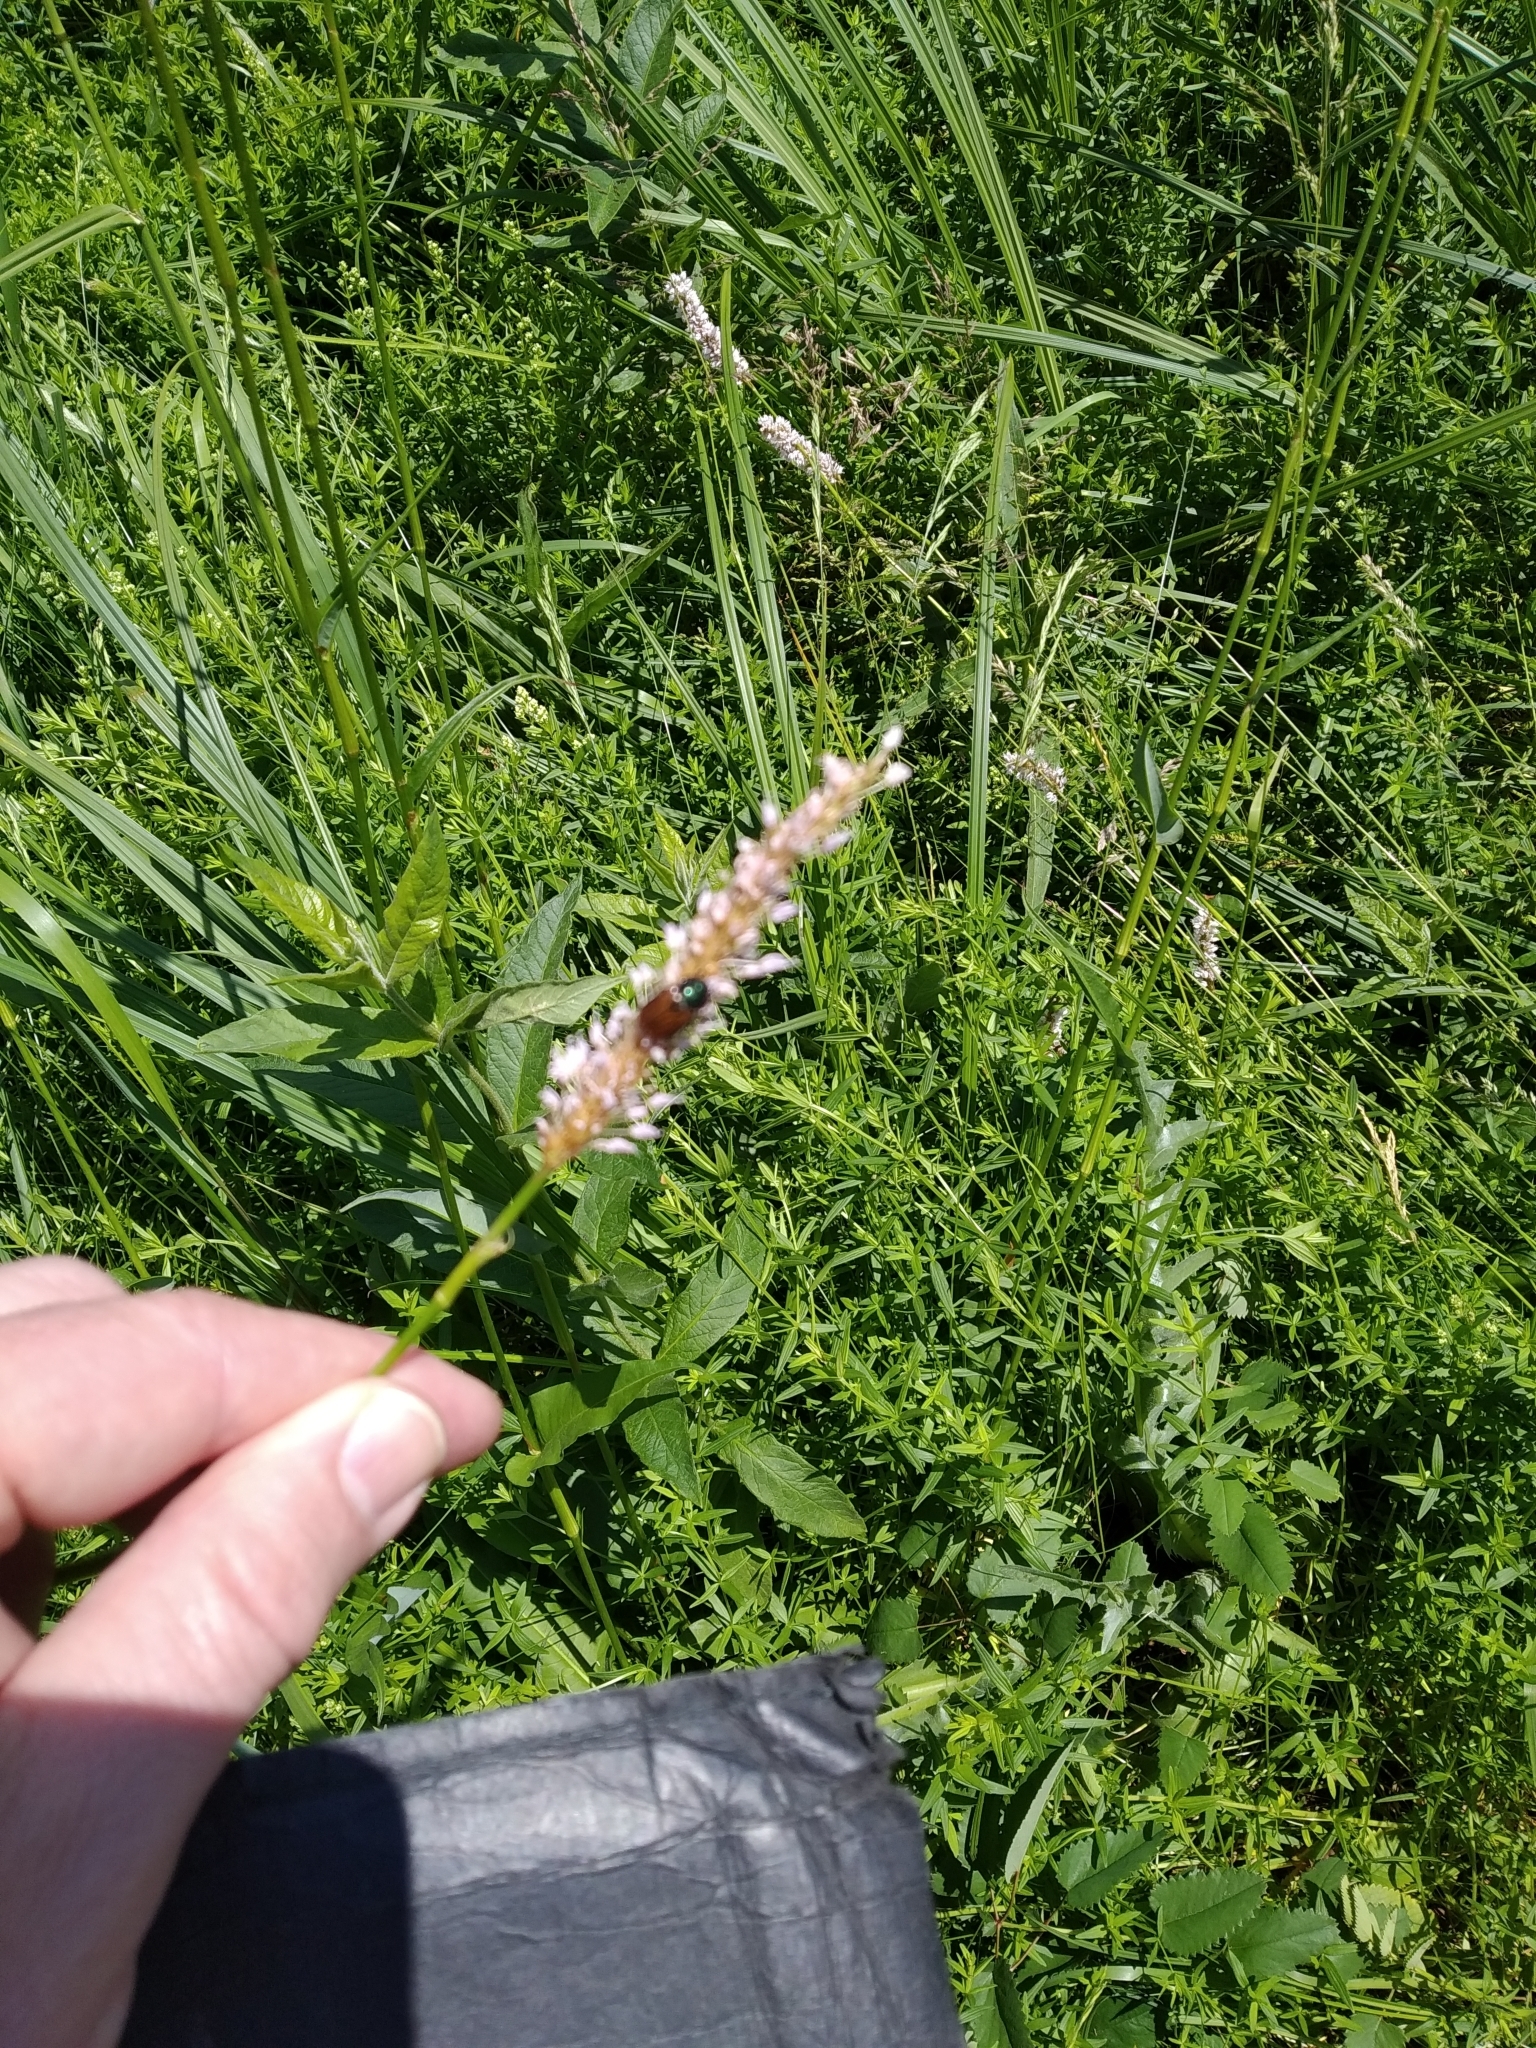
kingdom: Plantae
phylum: Tracheophyta
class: Magnoliopsida
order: Caryophyllales
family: Polygonaceae
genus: Bistorta
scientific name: Bistorta officinalis
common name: Common bistort
